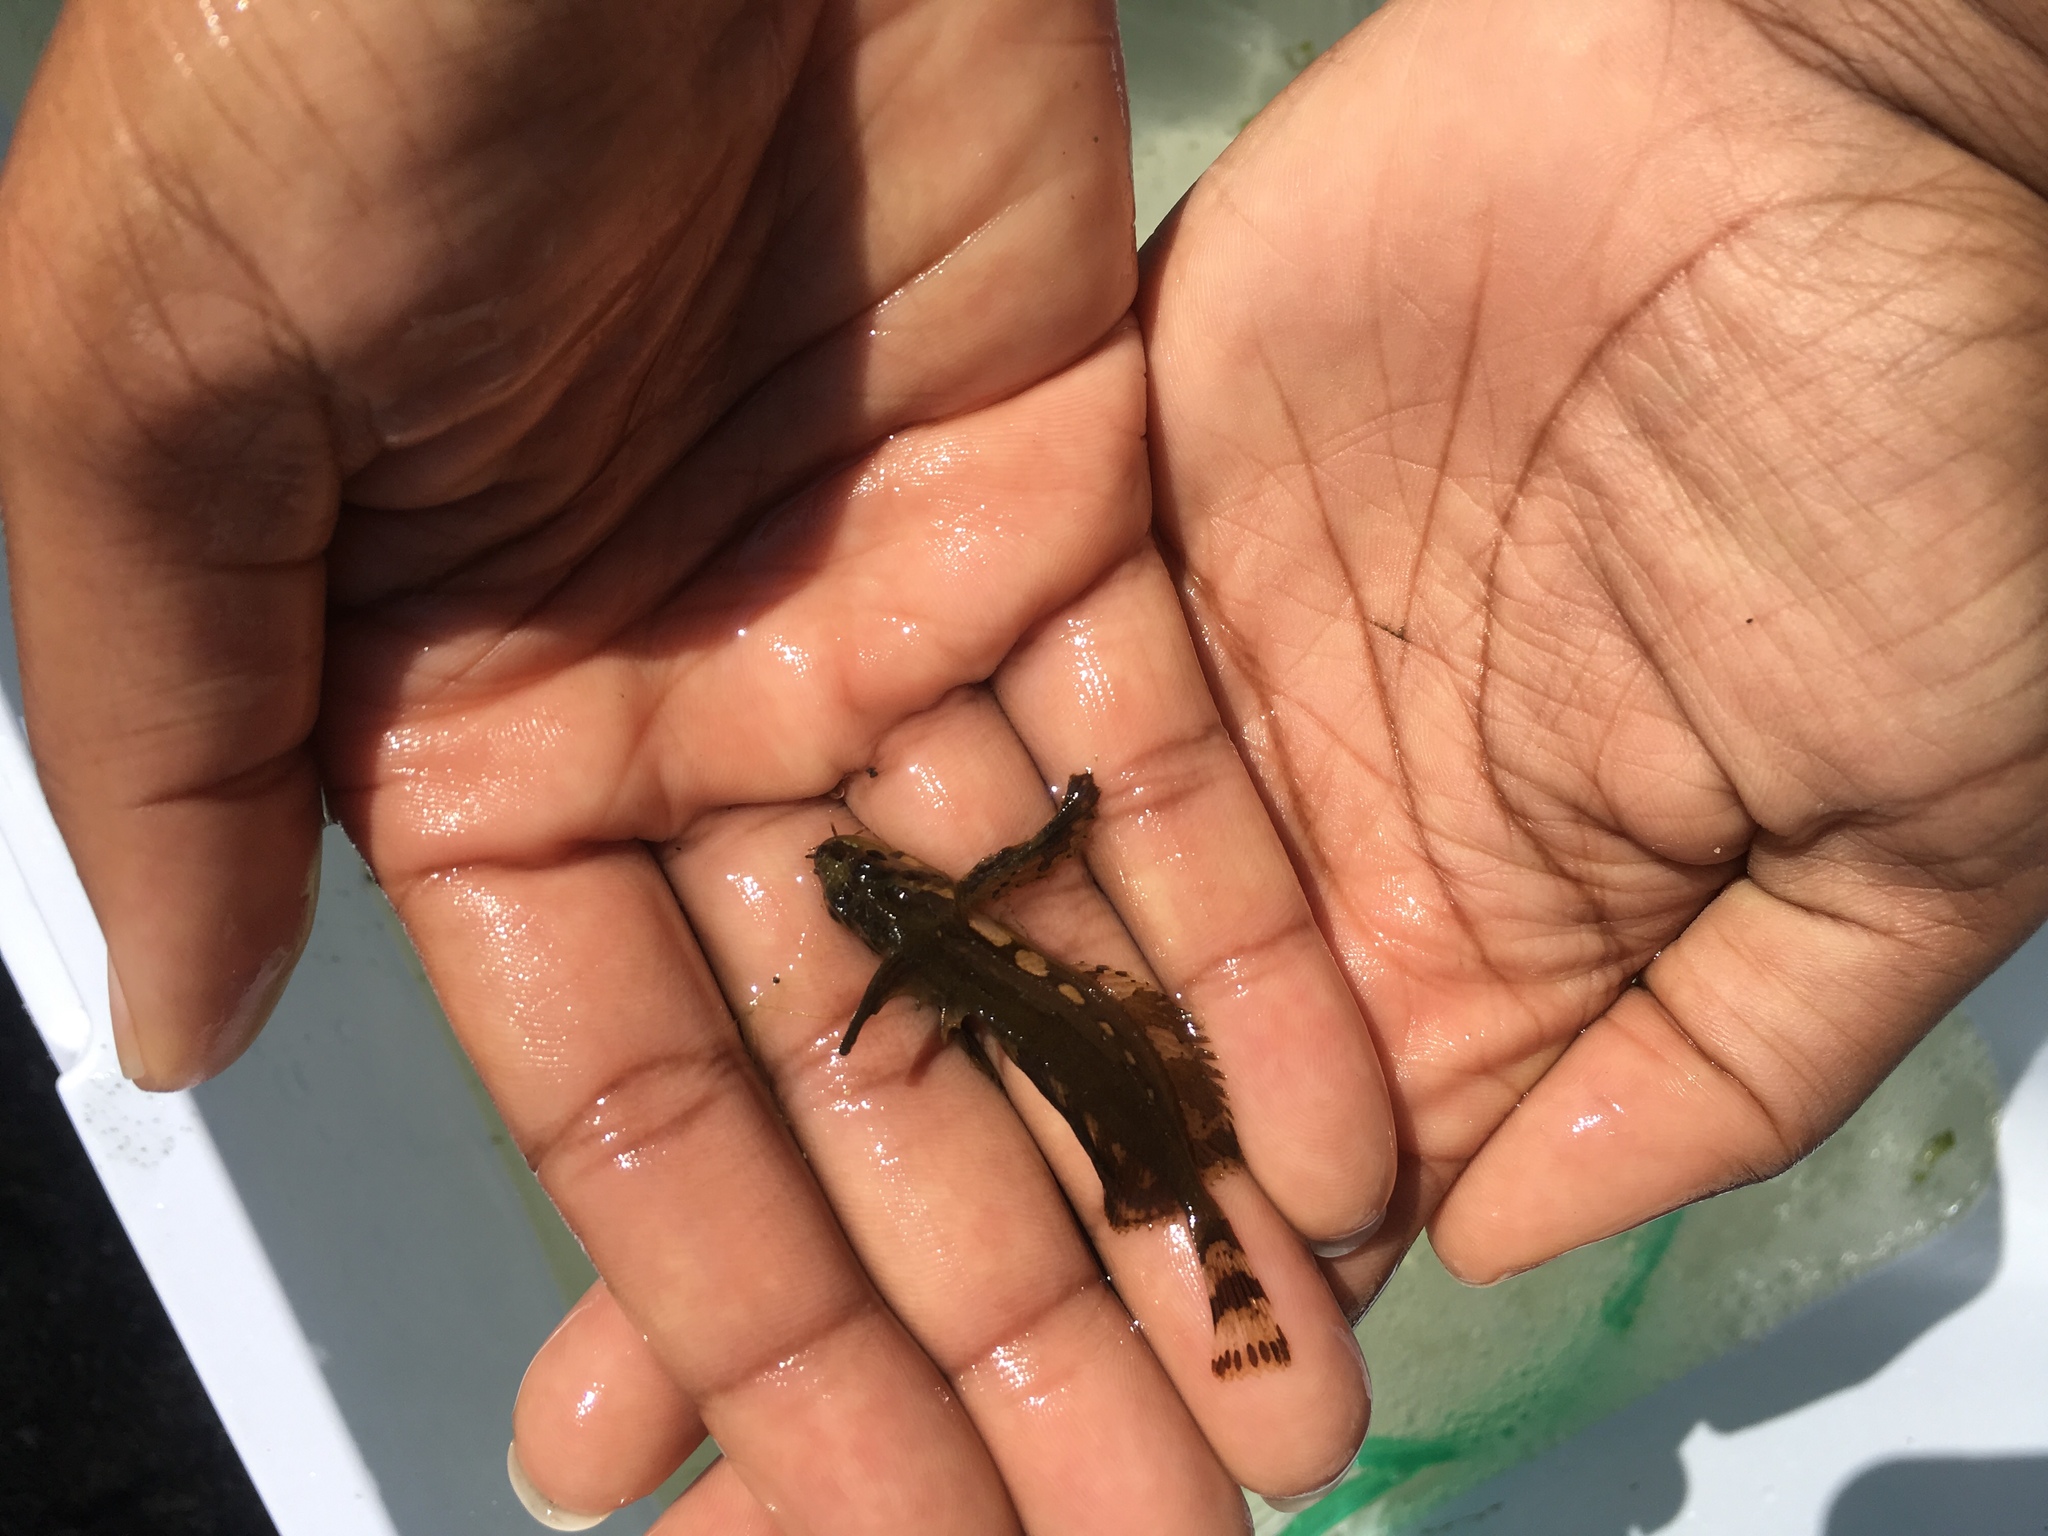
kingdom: Animalia
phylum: Chordata
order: Scorpaeniformes
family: Hemitripteridae
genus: Blepsias
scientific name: Blepsias cirrhosus
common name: Silverspotted sculpin
